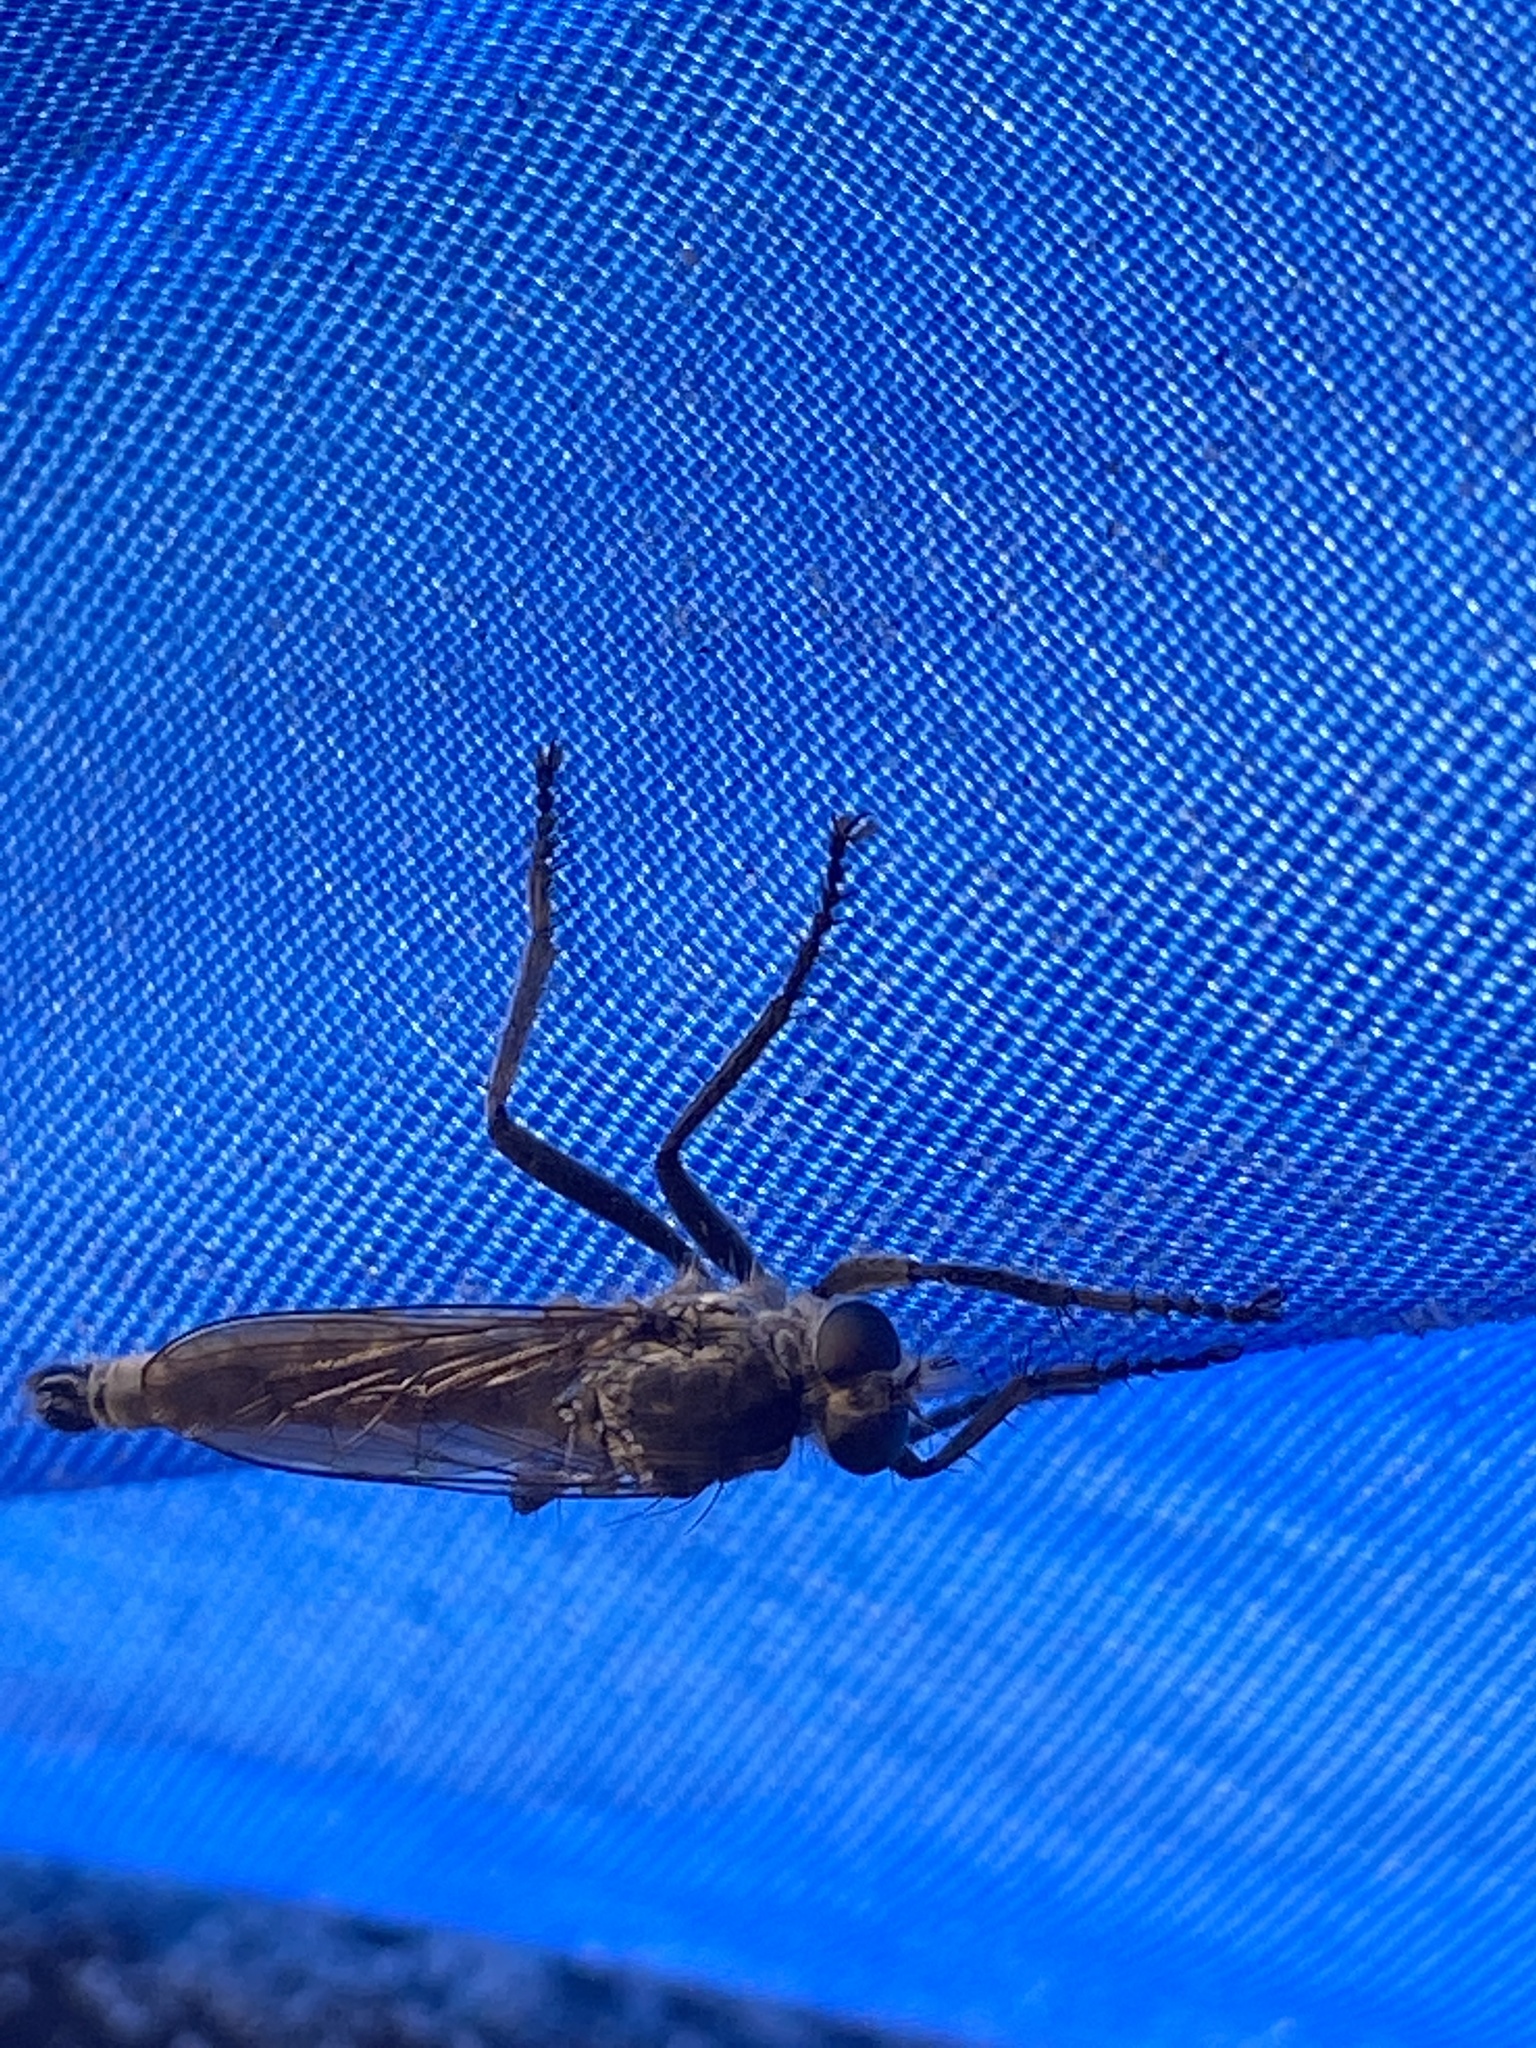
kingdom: Animalia
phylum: Arthropoda
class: Insecta
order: Diptera
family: Asilidae
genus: Philonicus
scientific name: Philonicus albiceps
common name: Dune robberfly
